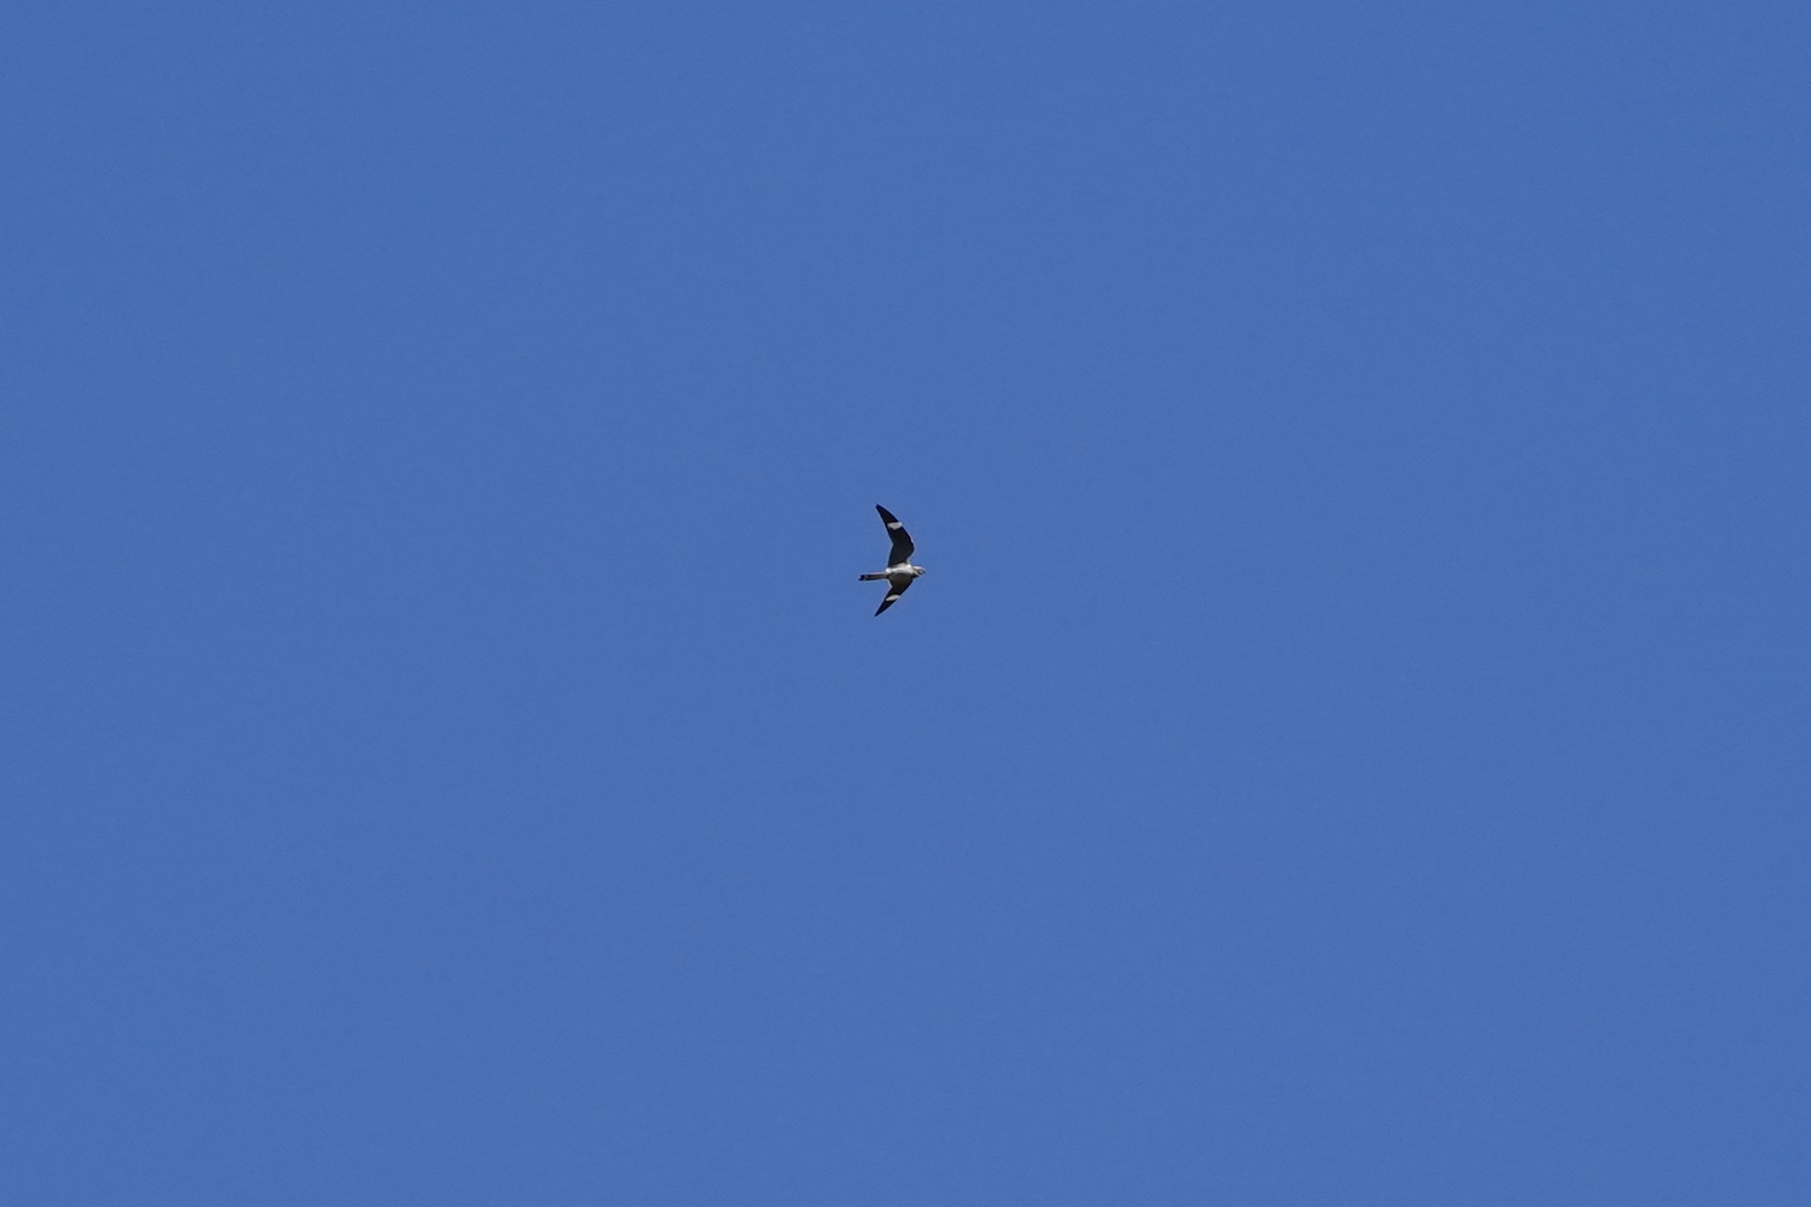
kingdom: Animalia
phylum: Chordata
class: Aves
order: Caprimulgiformes
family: Caprimulgidae
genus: Chordeiles
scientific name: Chordeiles minor
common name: Common nighthawk
